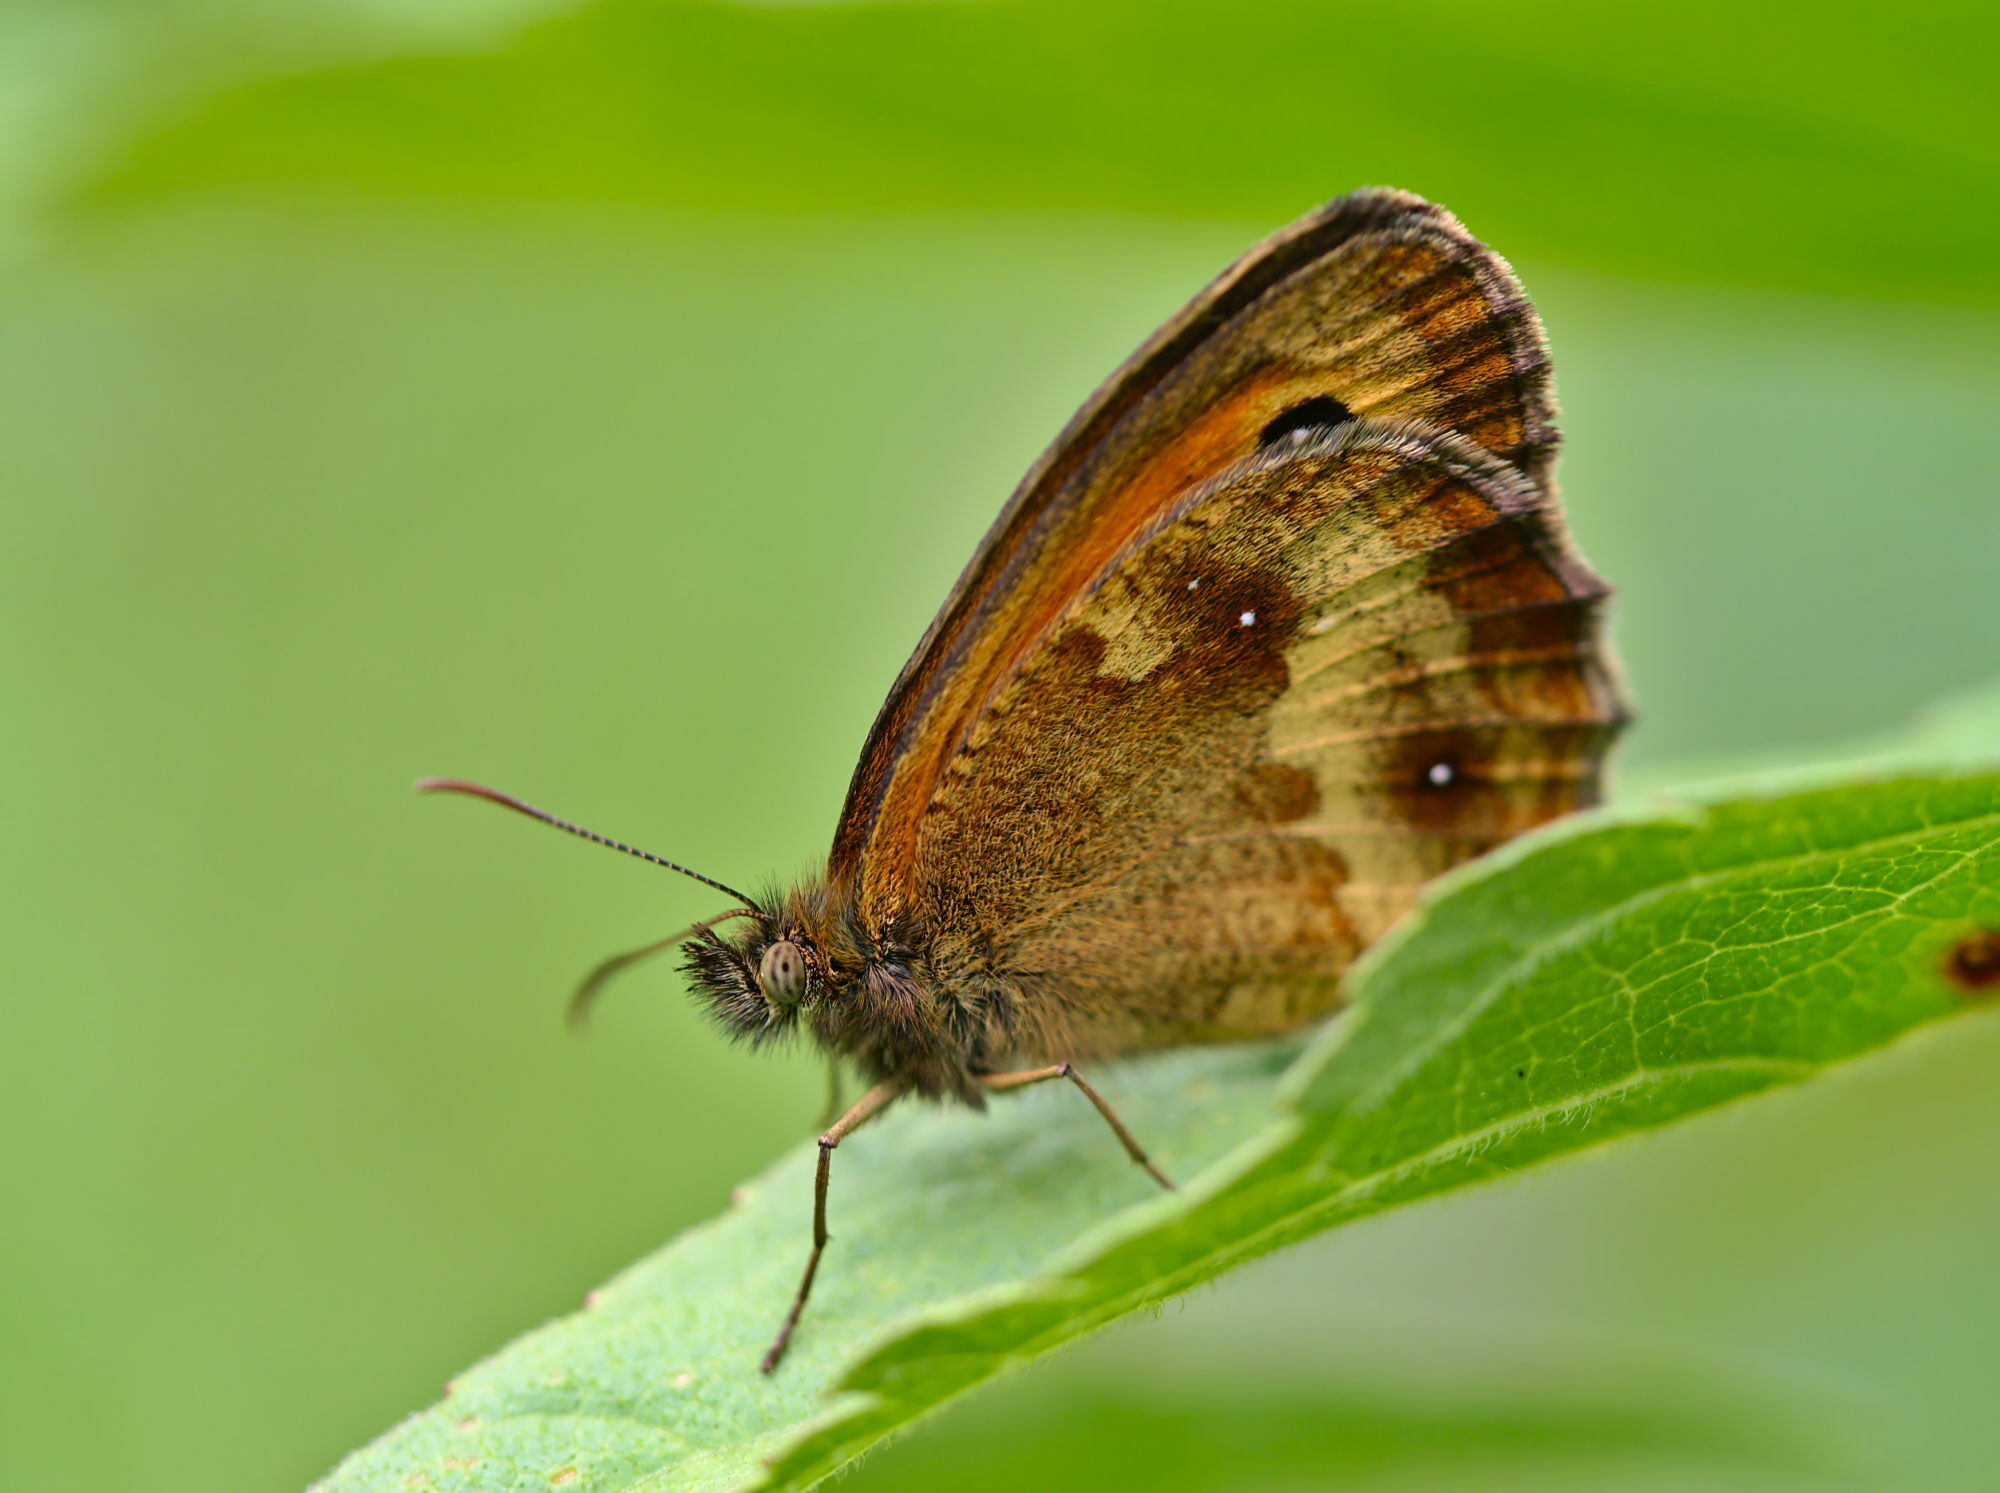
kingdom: Animalia
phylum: Arthropoda
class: Insecta
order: Lepidoptera
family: Nymphalidae
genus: Pyronia
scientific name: Pyronia tithonus
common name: Gatekeeper
